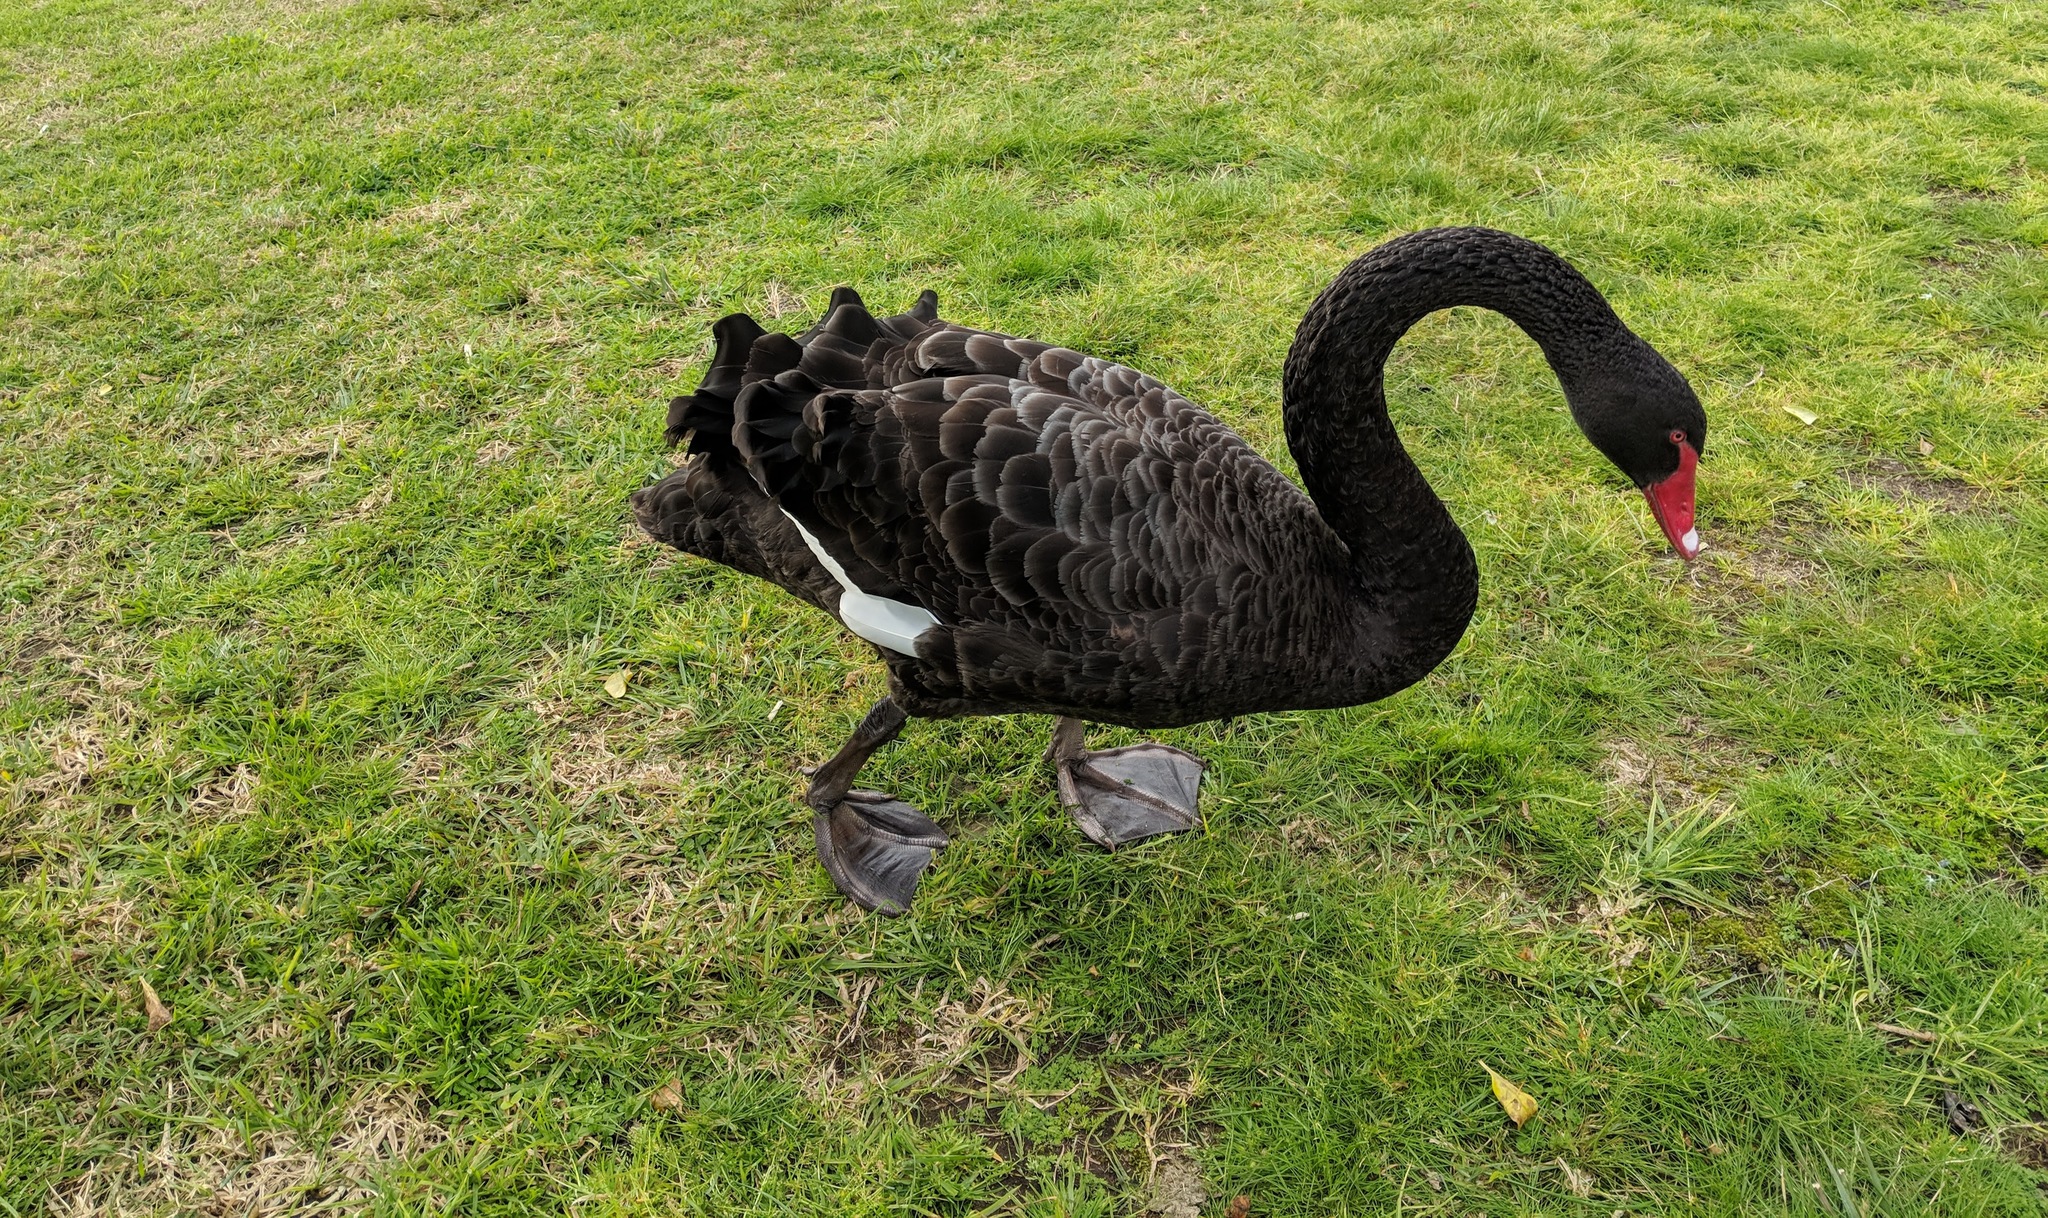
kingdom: Animalia
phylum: Chordata
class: Aves
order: Anseriformes
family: Anatidae
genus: Cygnus
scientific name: Cygnus atratus
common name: Black swan
